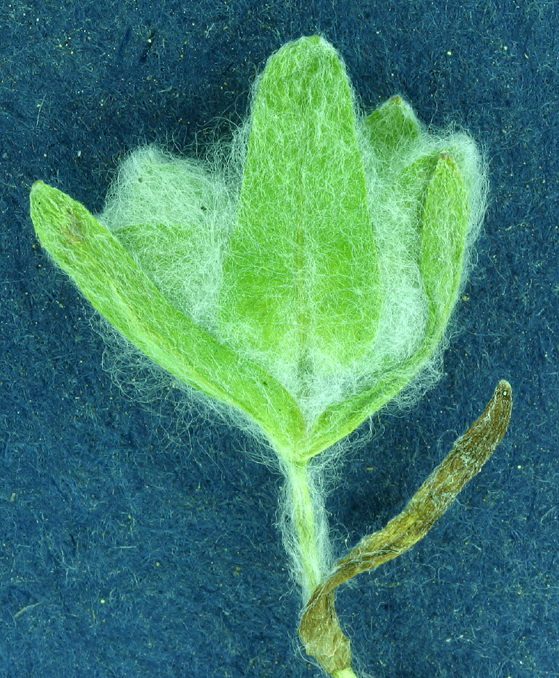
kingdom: Plantae
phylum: Tracheophyta
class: Magnoliopsida
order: Asterales
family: Asteraceae
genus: Psilocarphus
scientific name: Psilocarphus brevissimus
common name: Dwarf woollyheads
